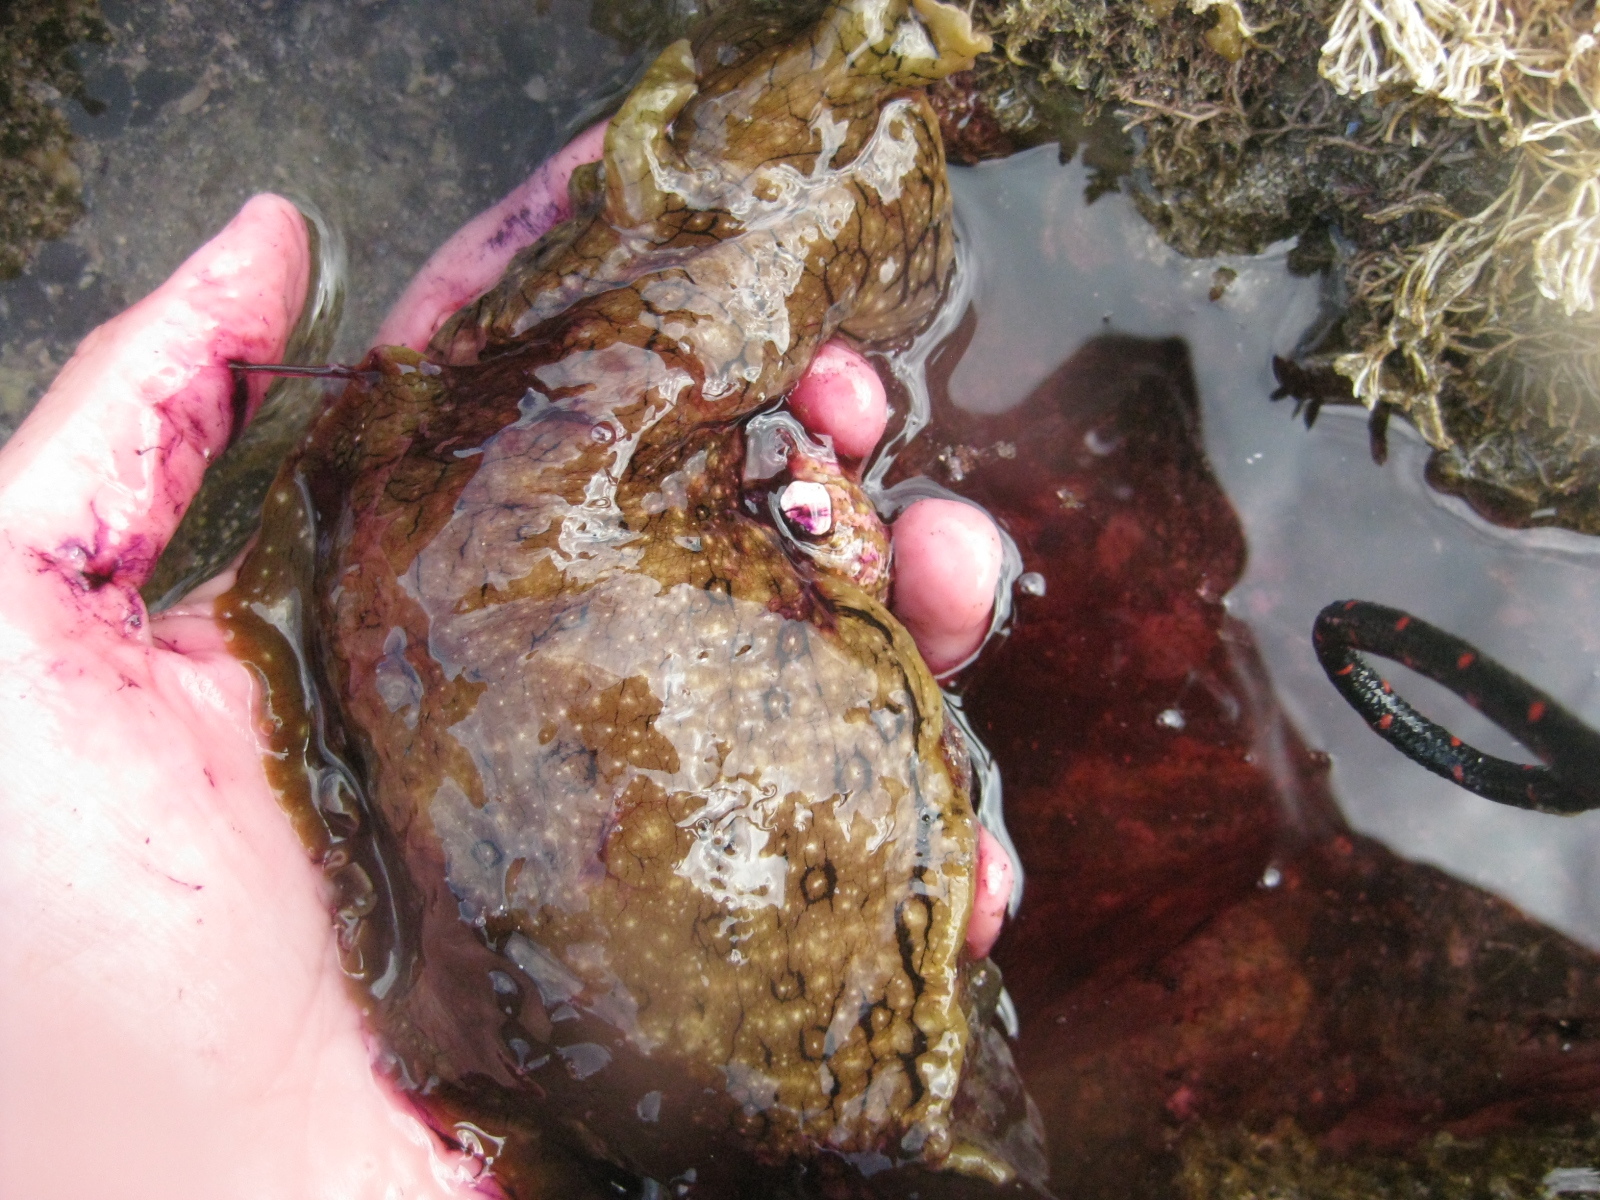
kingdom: Animalia
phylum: Mollusca
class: Gastropoda
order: Aplysiida
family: Aplysiidae
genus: Aplysia
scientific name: Aplysia argus
